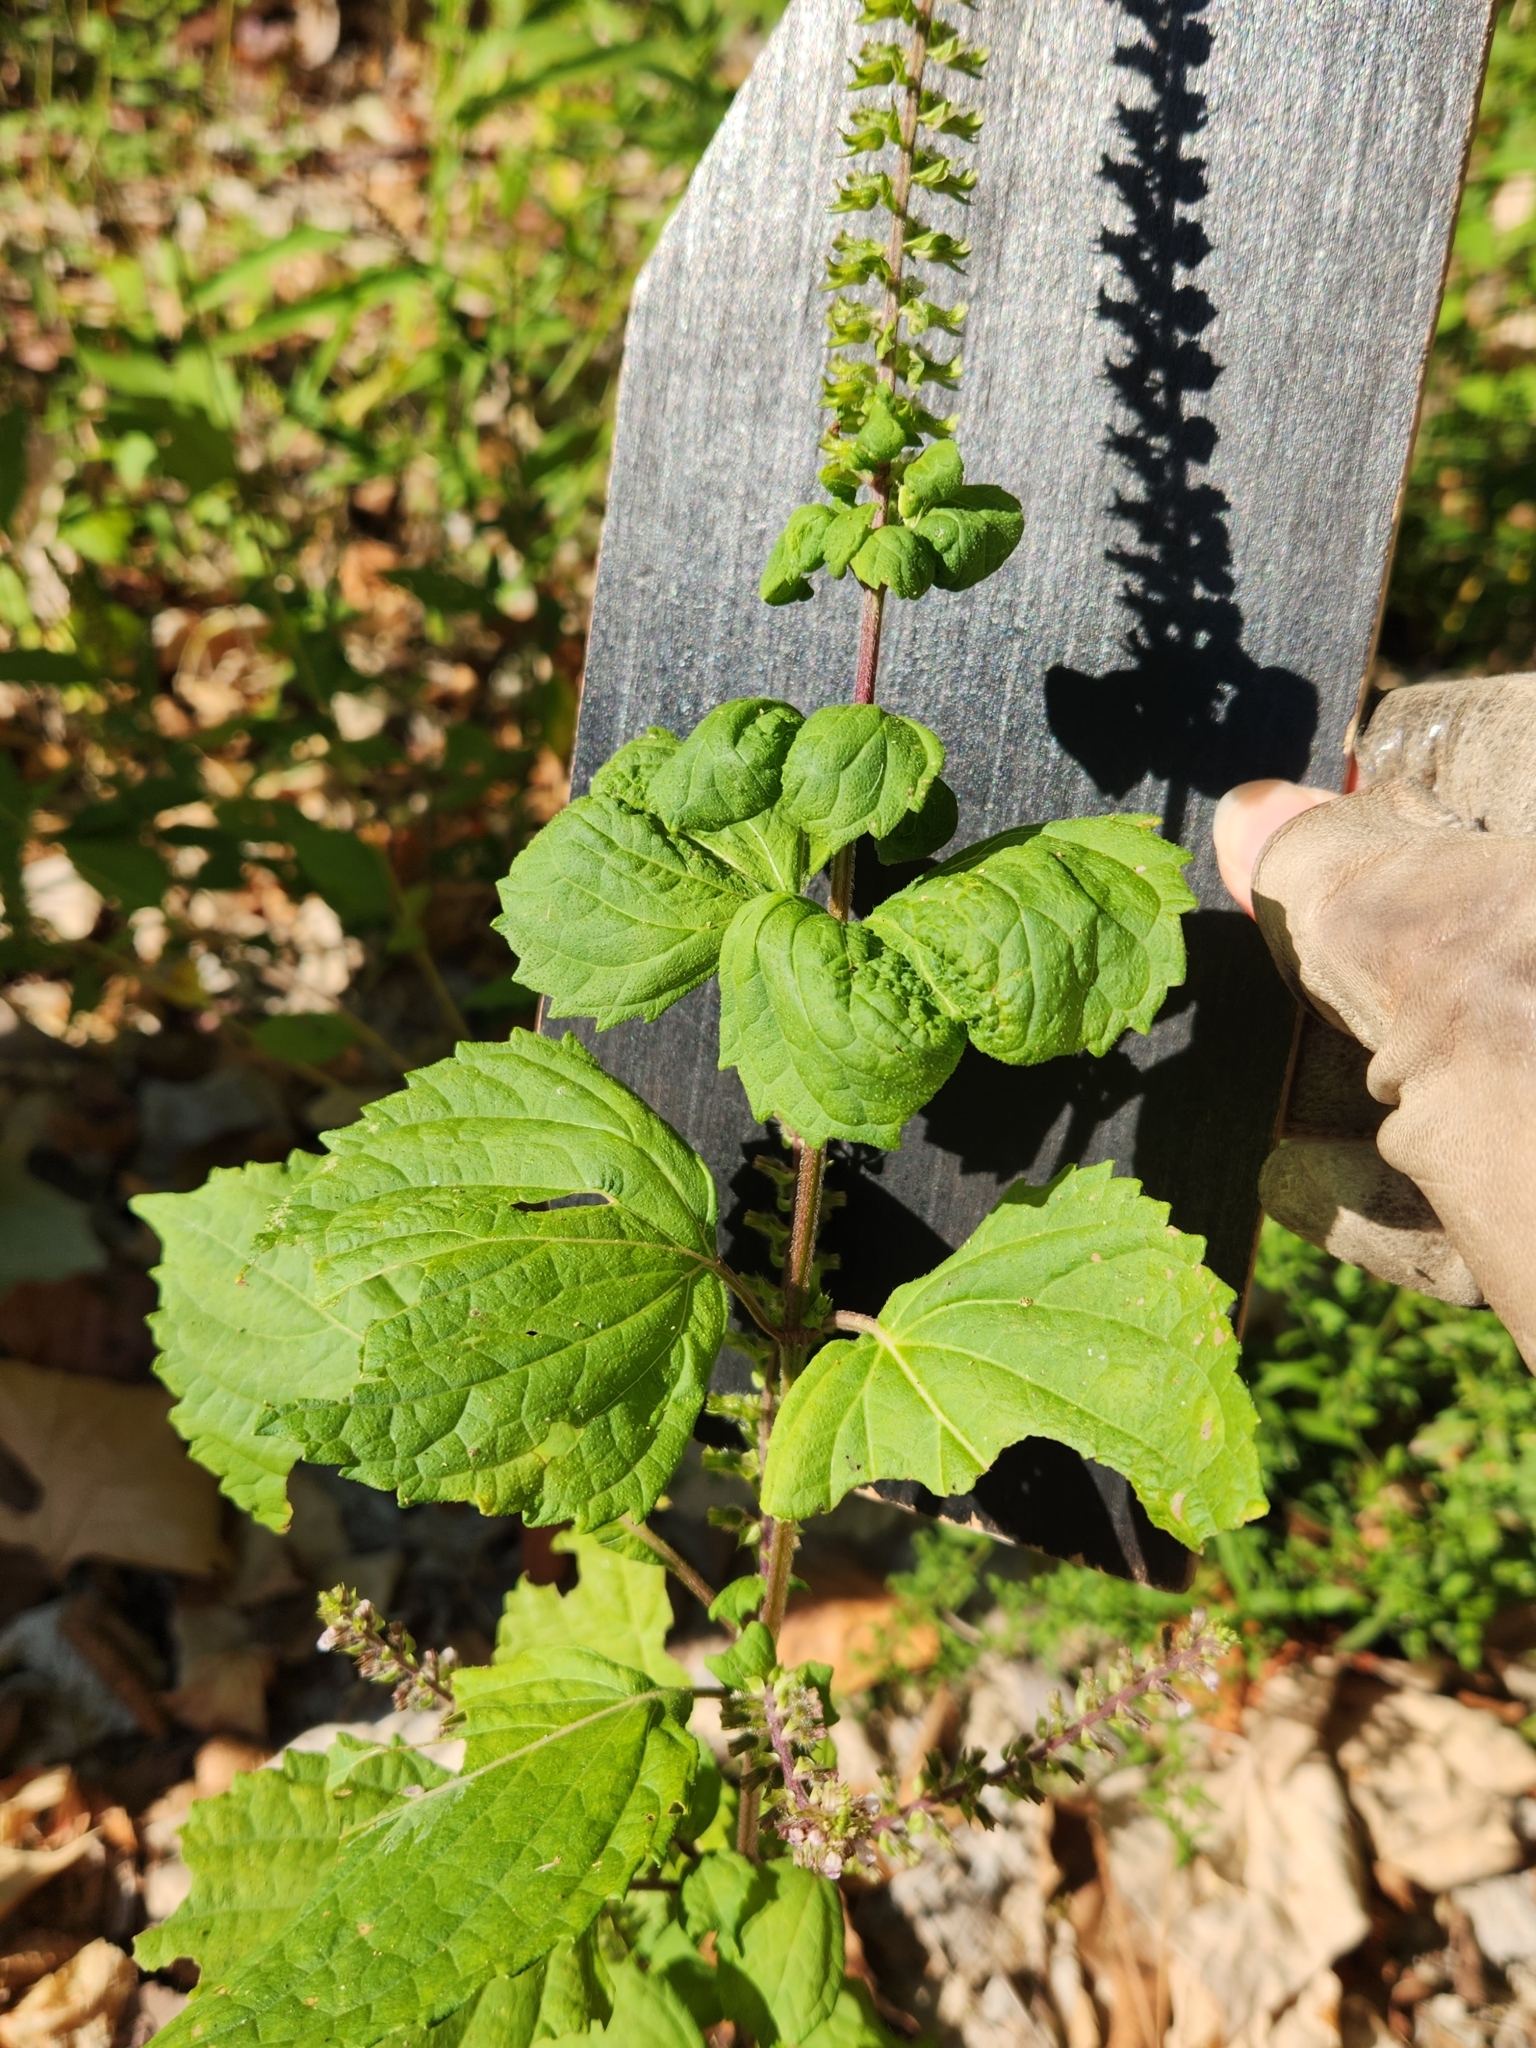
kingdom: Plantae
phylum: Tracheophyta
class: Magnoliopsida
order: Lamiales
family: Lamiaceae
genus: Perilla
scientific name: Perilla frutescens
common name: Perilla
